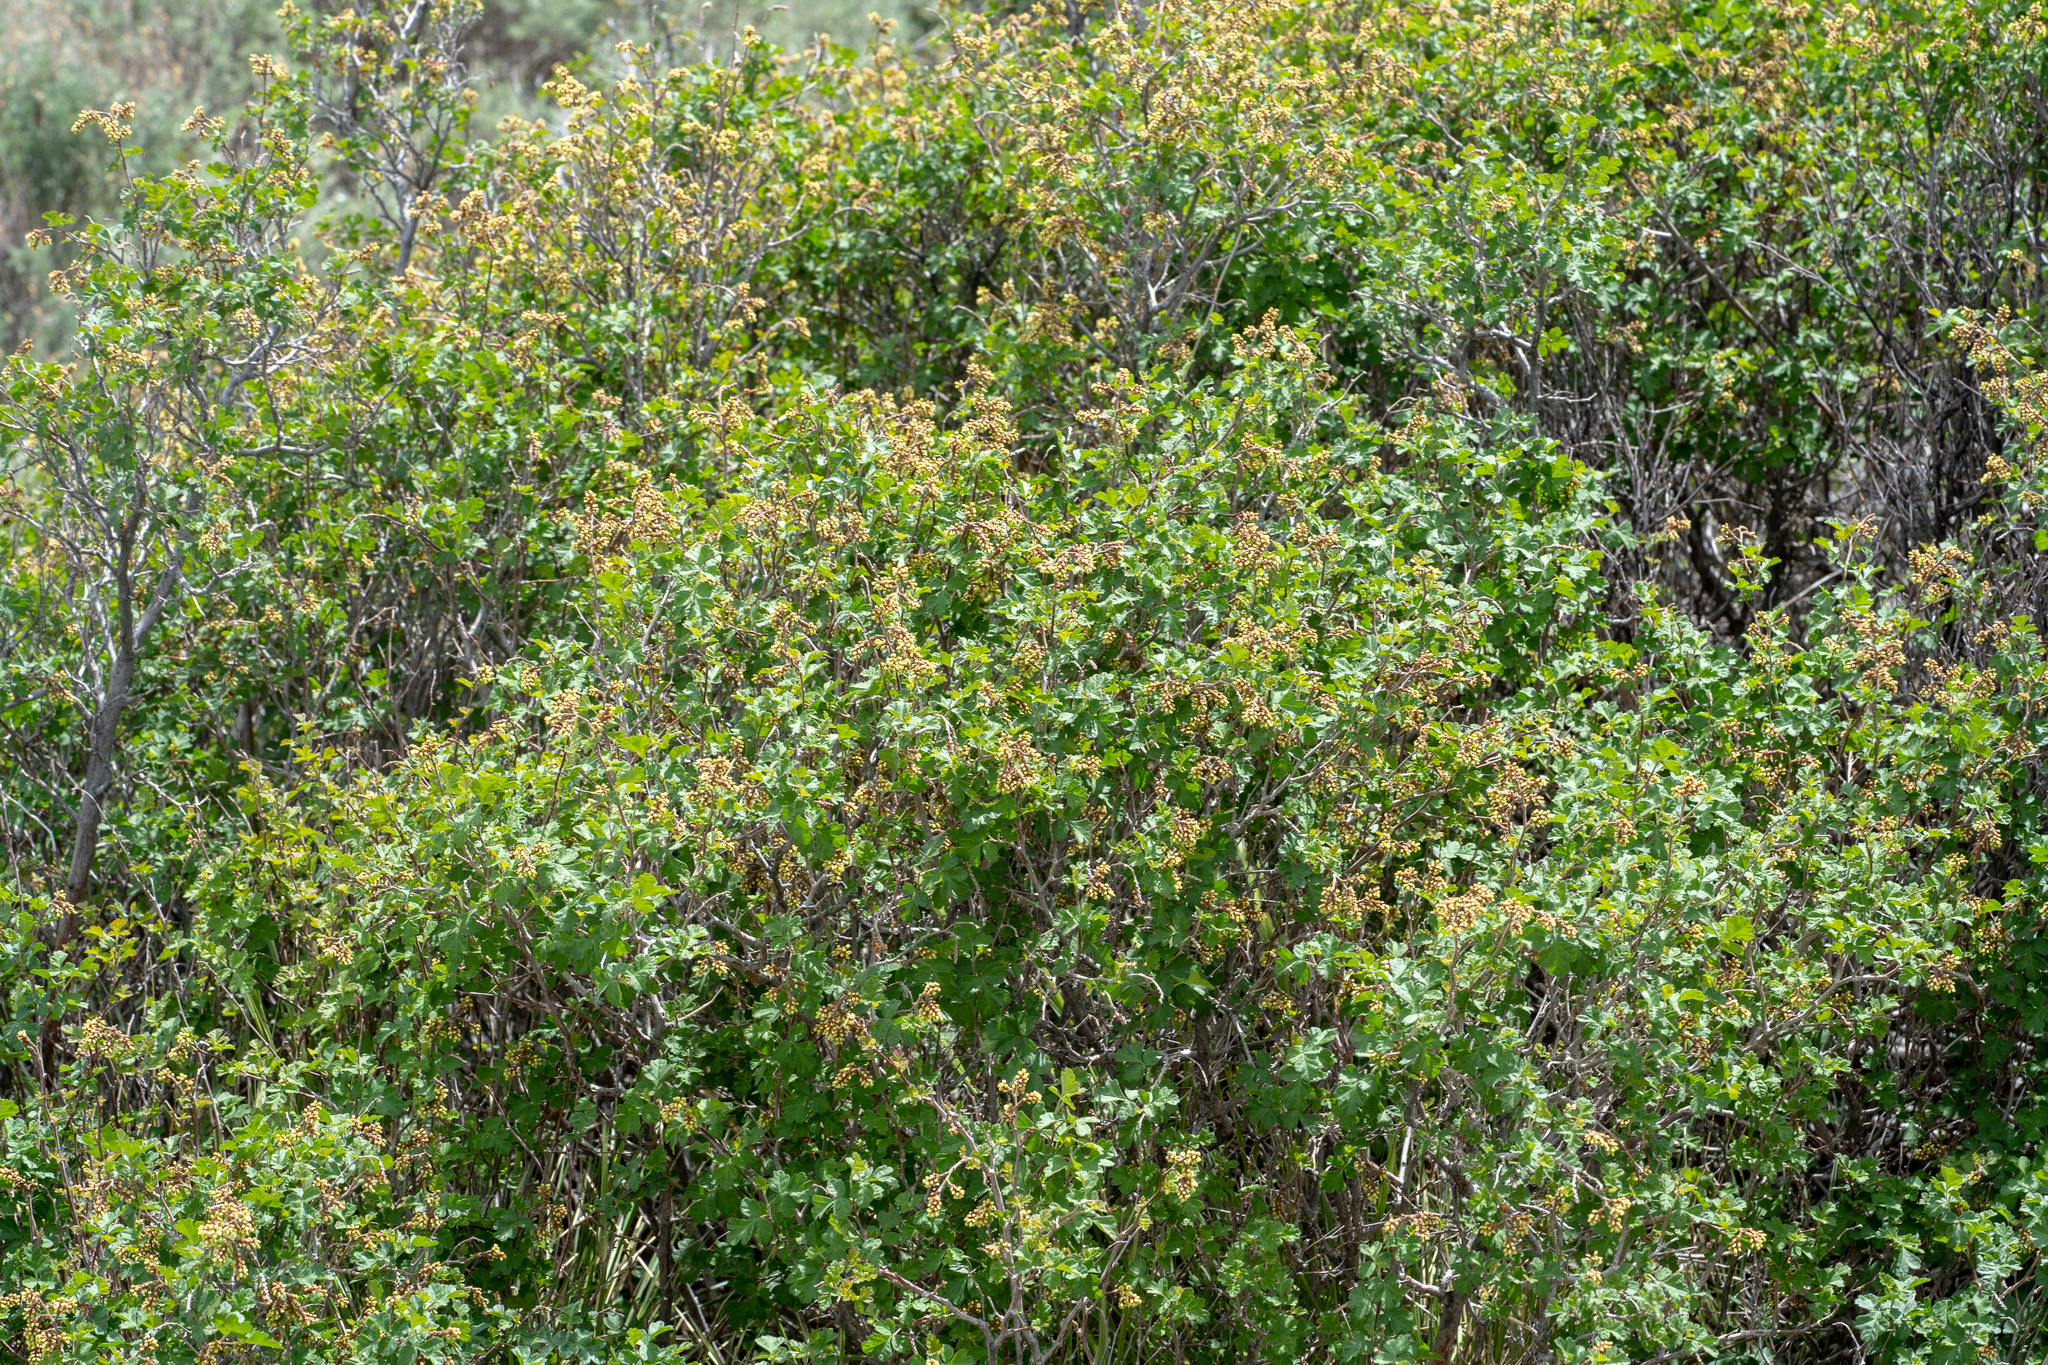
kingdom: Plantae
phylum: Tracheophyta
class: Magnoliopsida
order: Sapindales
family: Anacardiaceae
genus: Rhus
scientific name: Rhus aromatica
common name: Aromatic sumac
